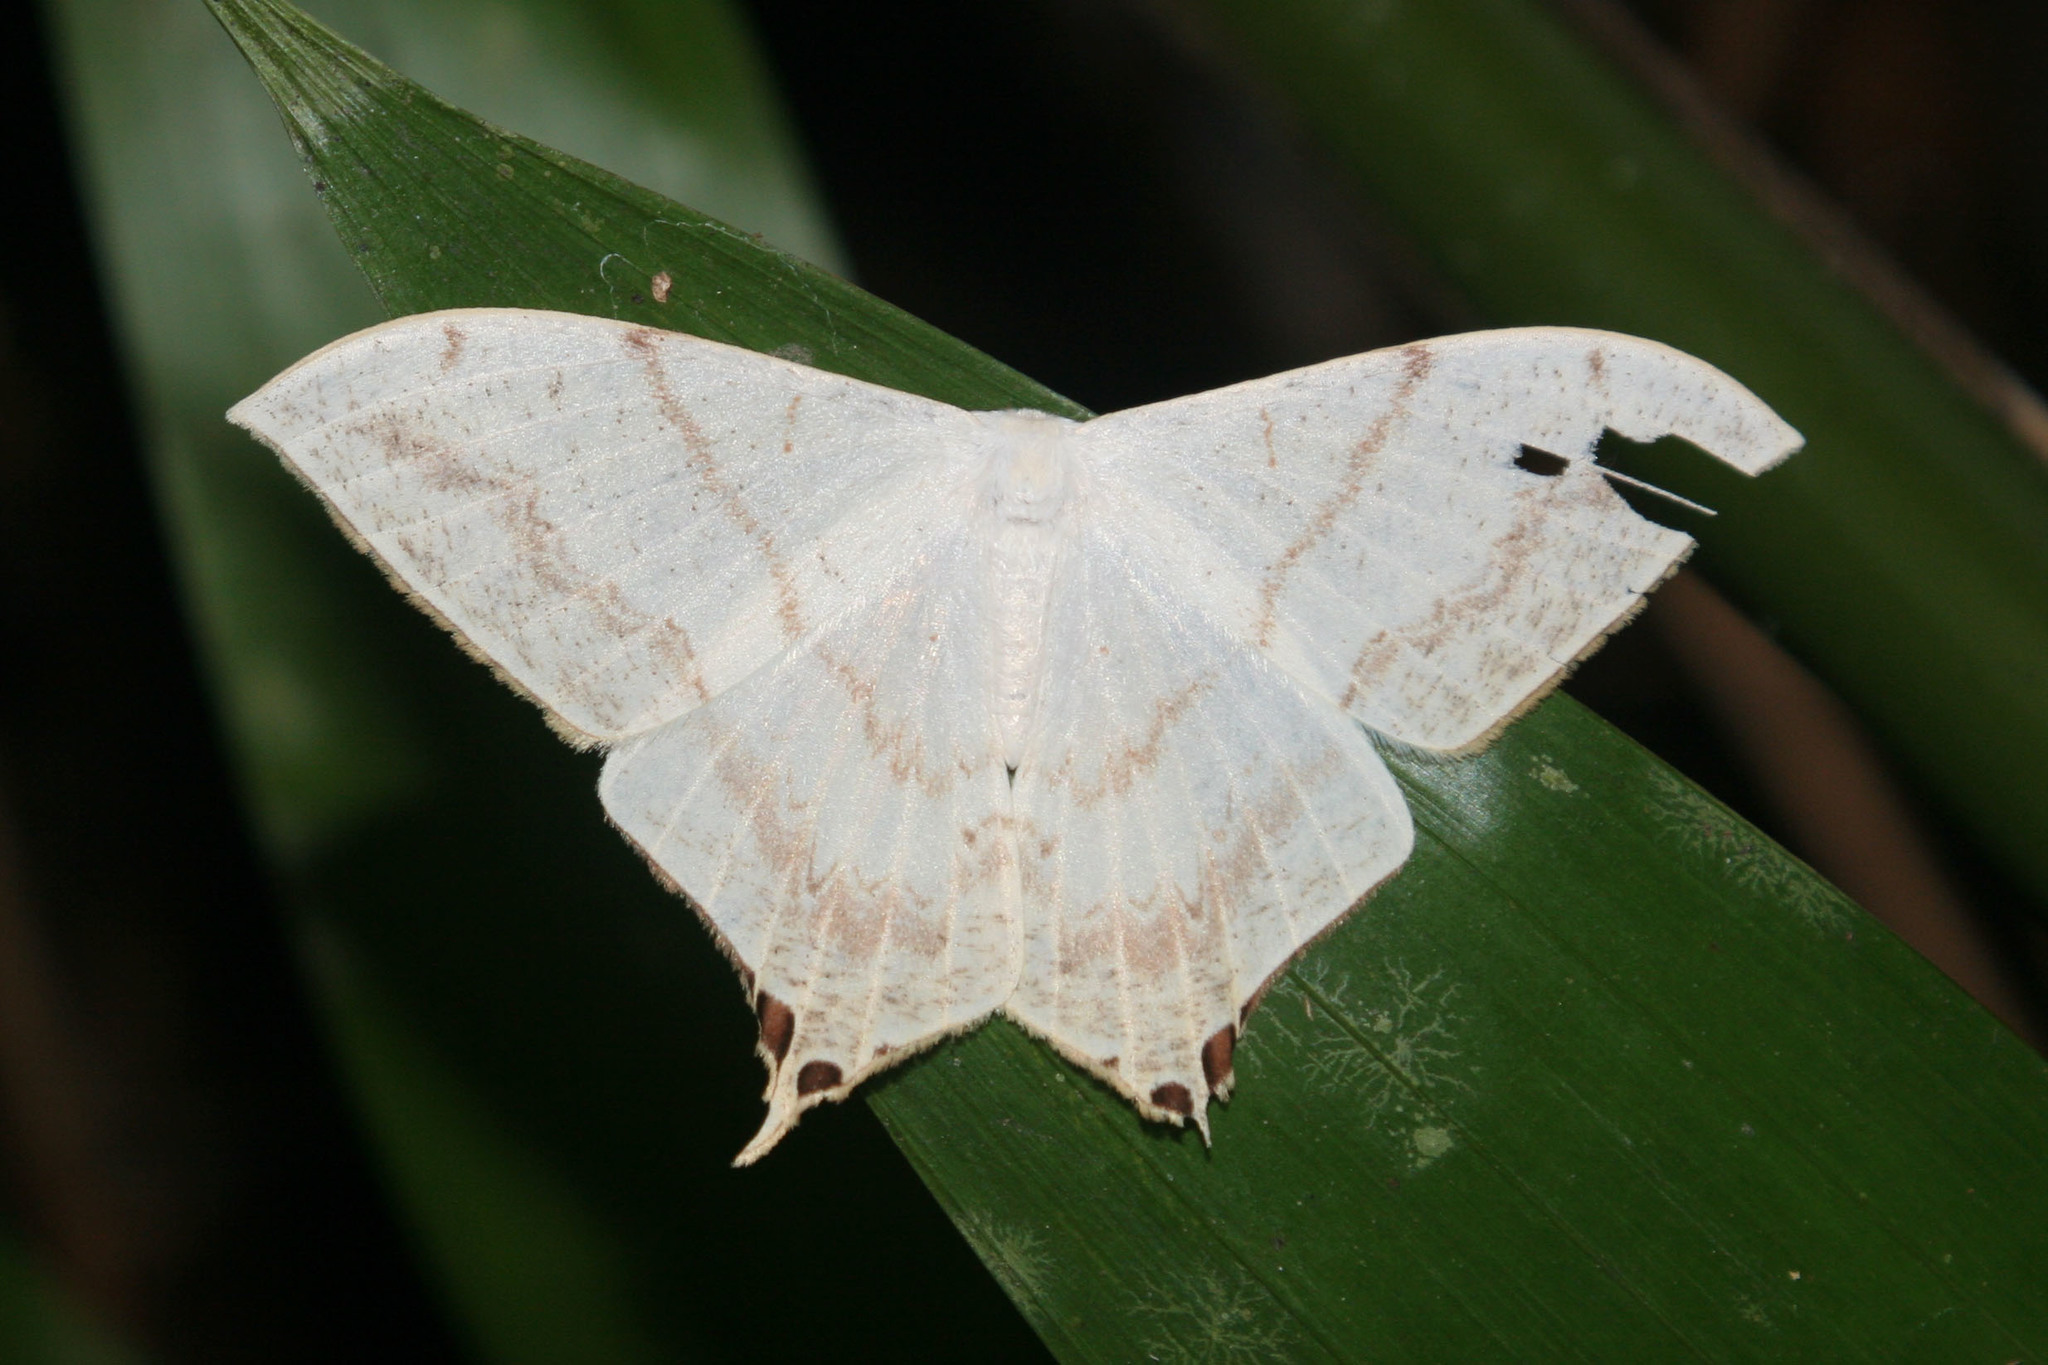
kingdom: Animalia
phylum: Arthropoda
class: Insecta
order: Lepidoptera
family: Saturniidae
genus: Therinia
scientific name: Therinia lactucina
